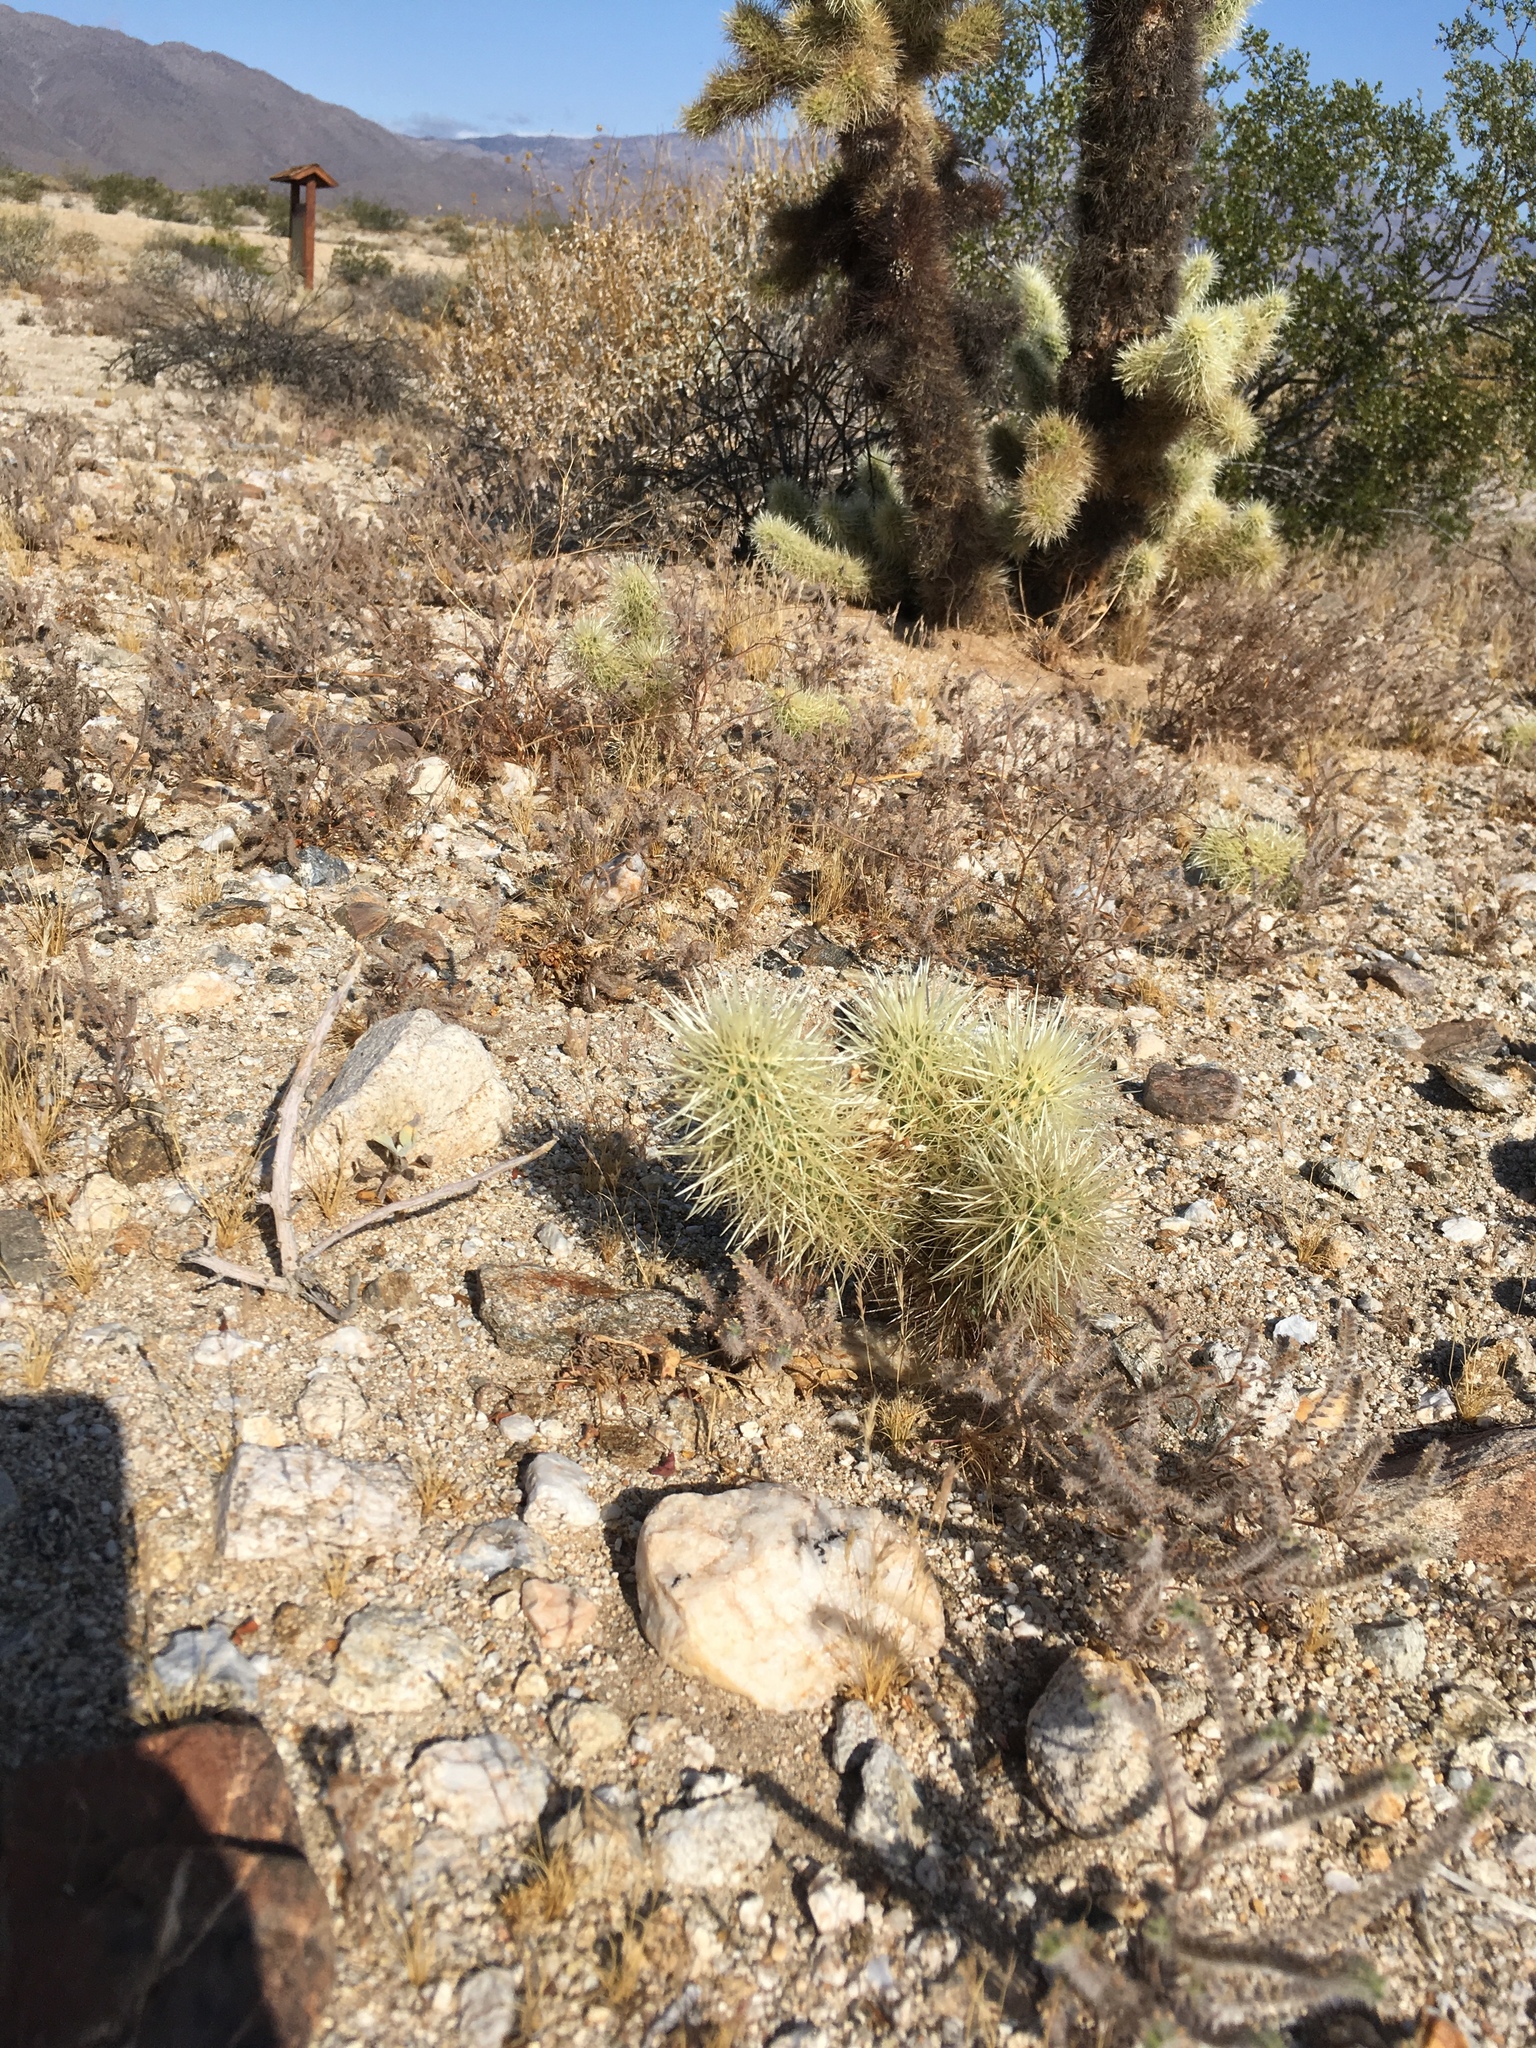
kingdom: Plantae
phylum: Tracheophyta
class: Magnoliopsida
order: Caryophyllales
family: Cactaceae
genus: Cylindropuntia
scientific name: Cylindropuntia fosbergii
